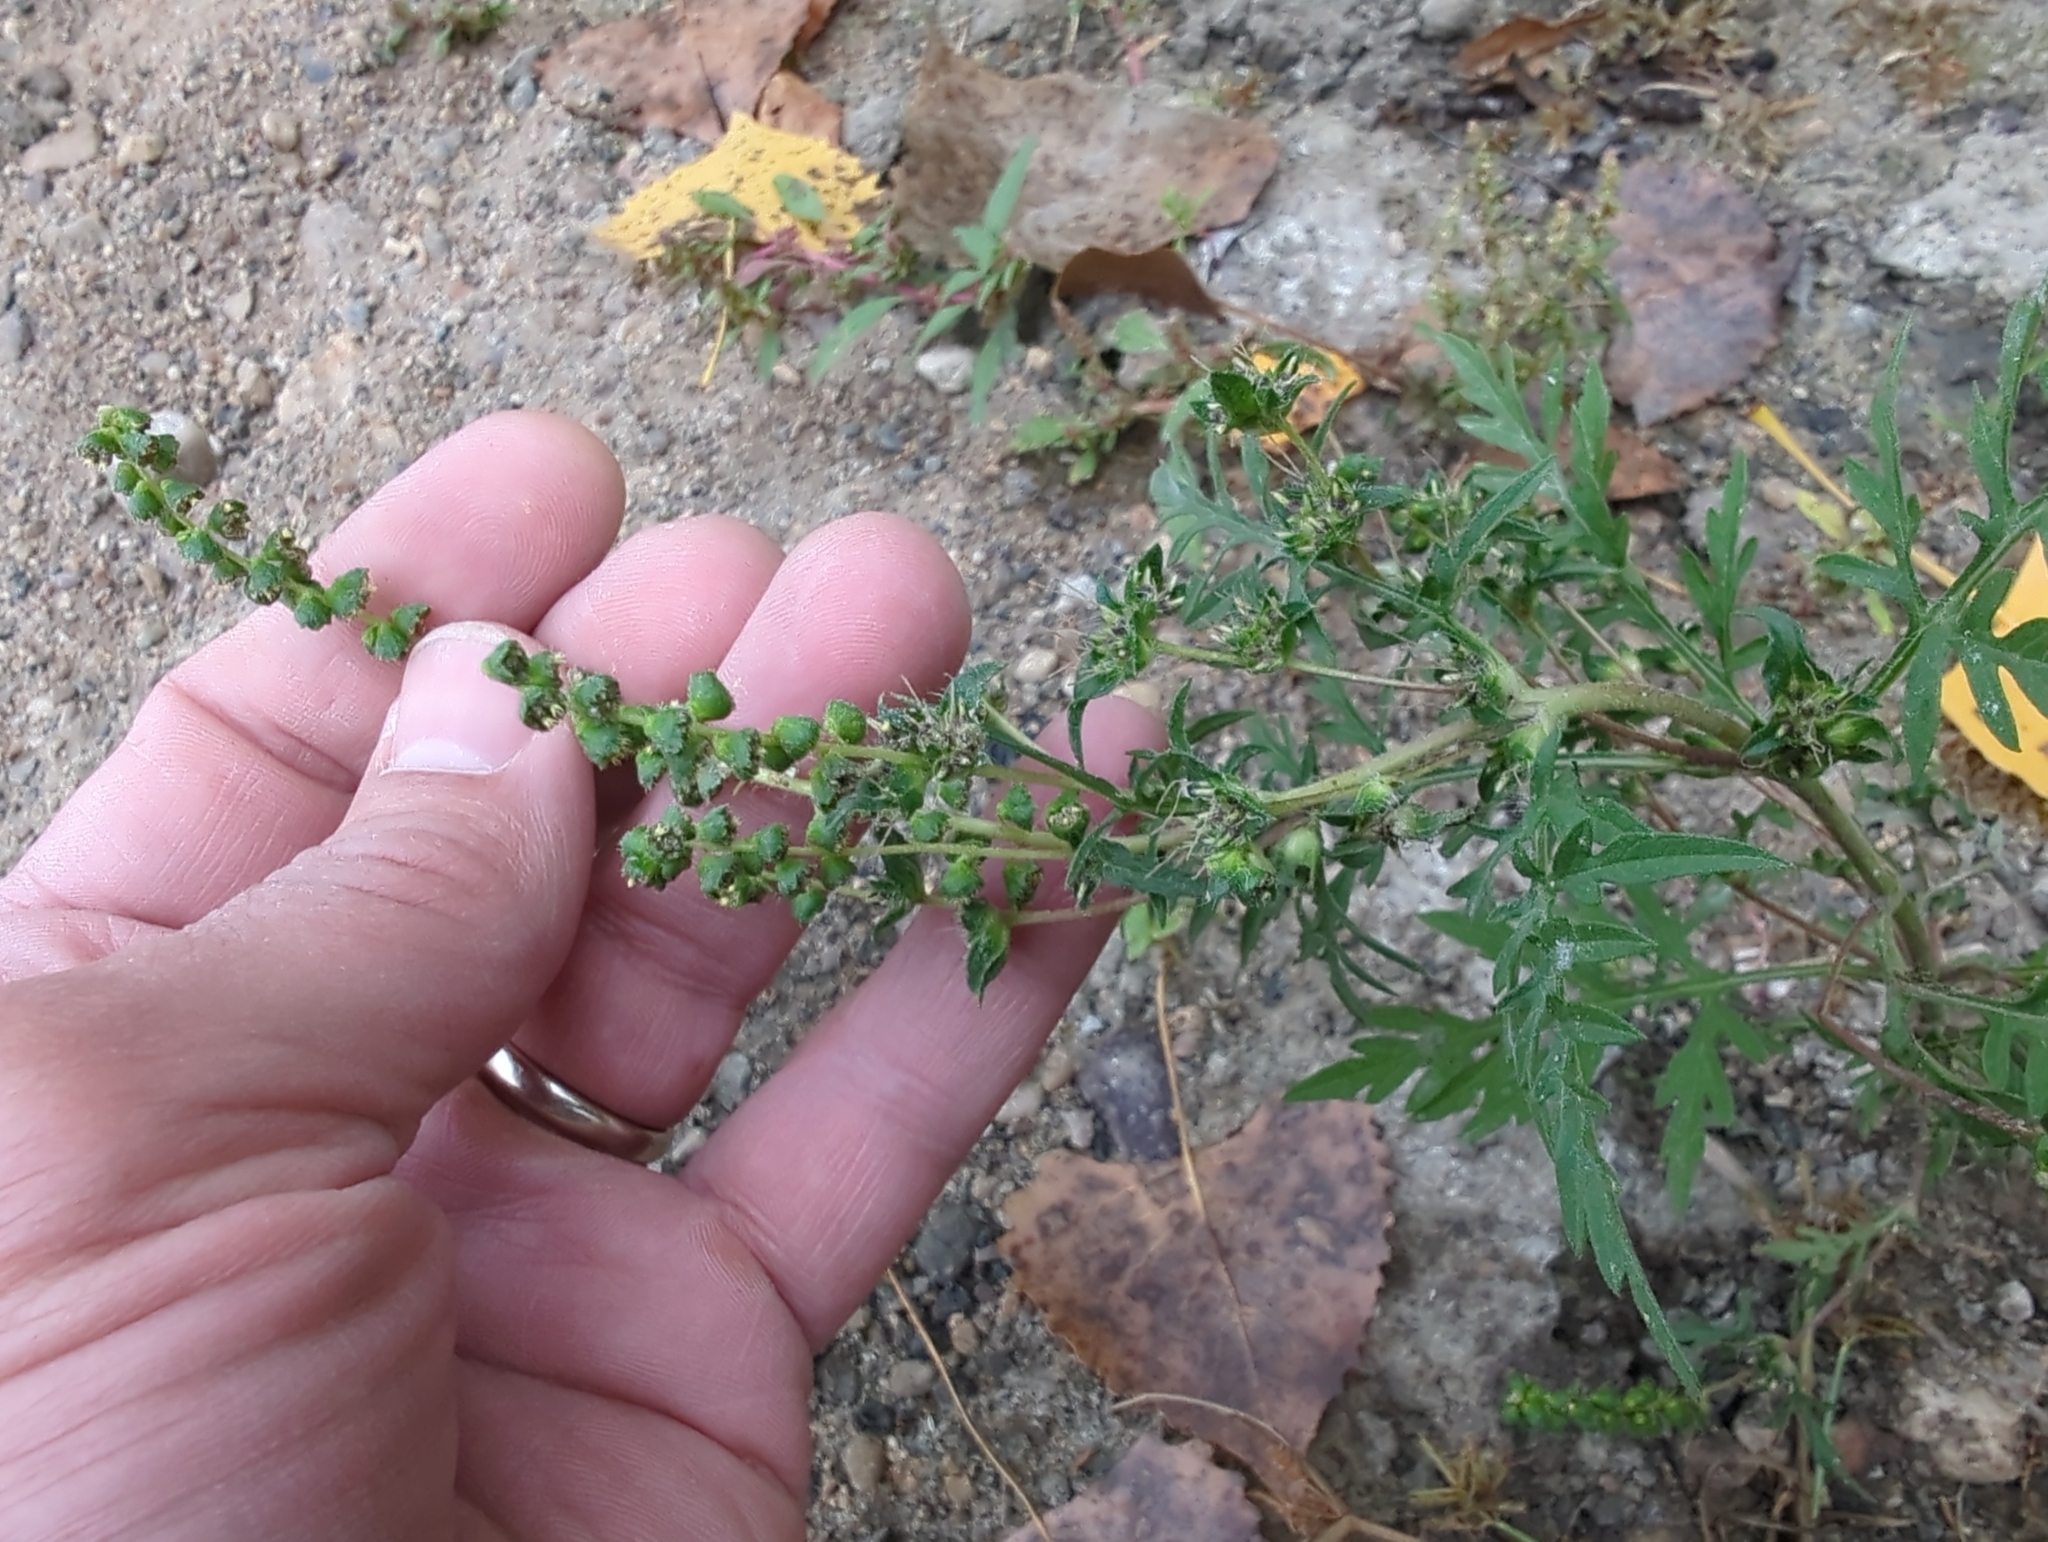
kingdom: Plantae
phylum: Tracheophyta
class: Magnoliopsida
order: Asterales
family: Asteraceae
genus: Ambrosia
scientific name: Ambrosia artemisiifolia
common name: Annual ragweed
